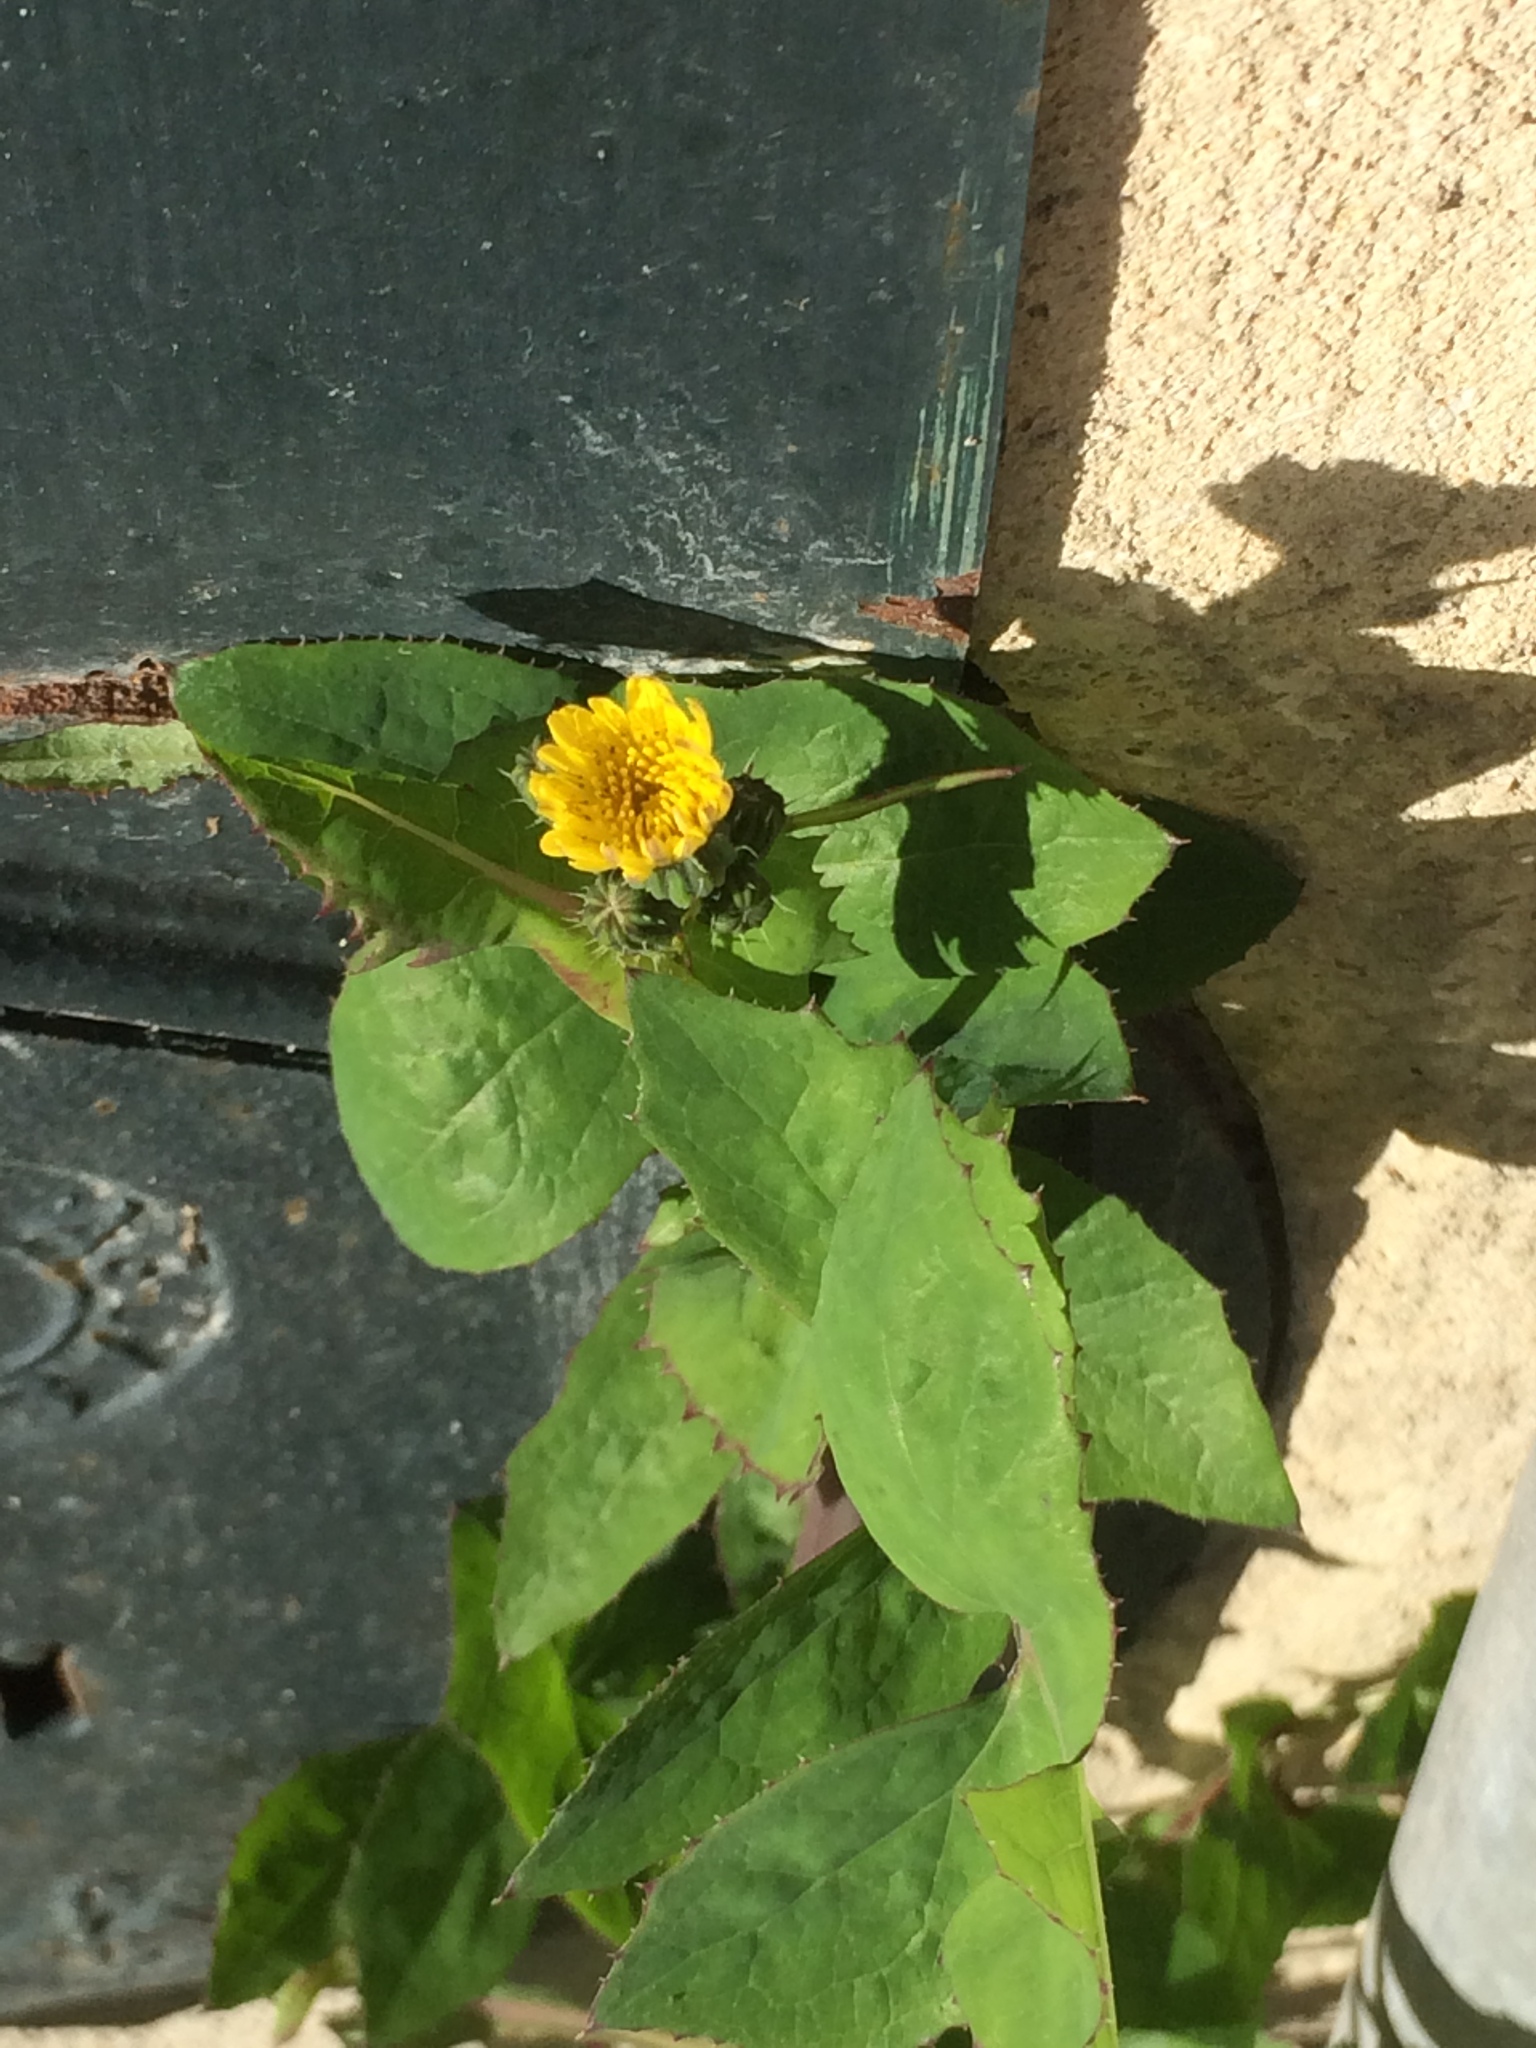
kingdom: Plantae
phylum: Tracheophyta
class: Magnoliopsida
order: Asterales
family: Asteraceae
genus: Sonchus
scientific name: Sonchus oleraceus
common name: Common sowthistle
